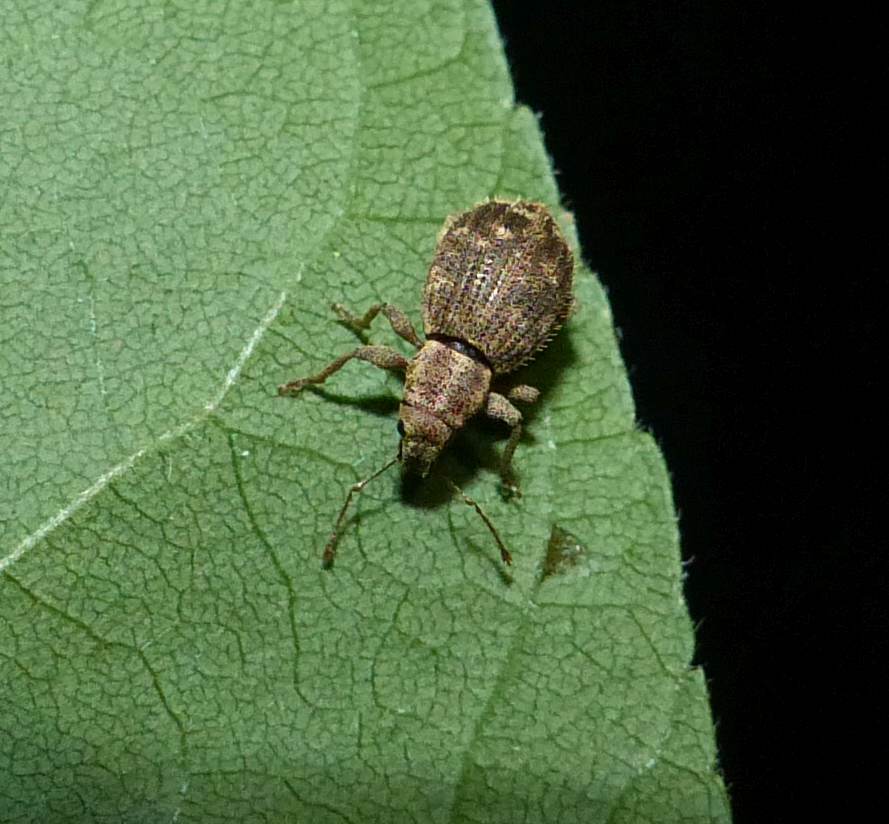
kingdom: Animalia
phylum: Arthropoda
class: Insecta
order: Coleoptera
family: Curculionidae
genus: Sciaphilus
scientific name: Sciaphilus asperatus
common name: Weevil
